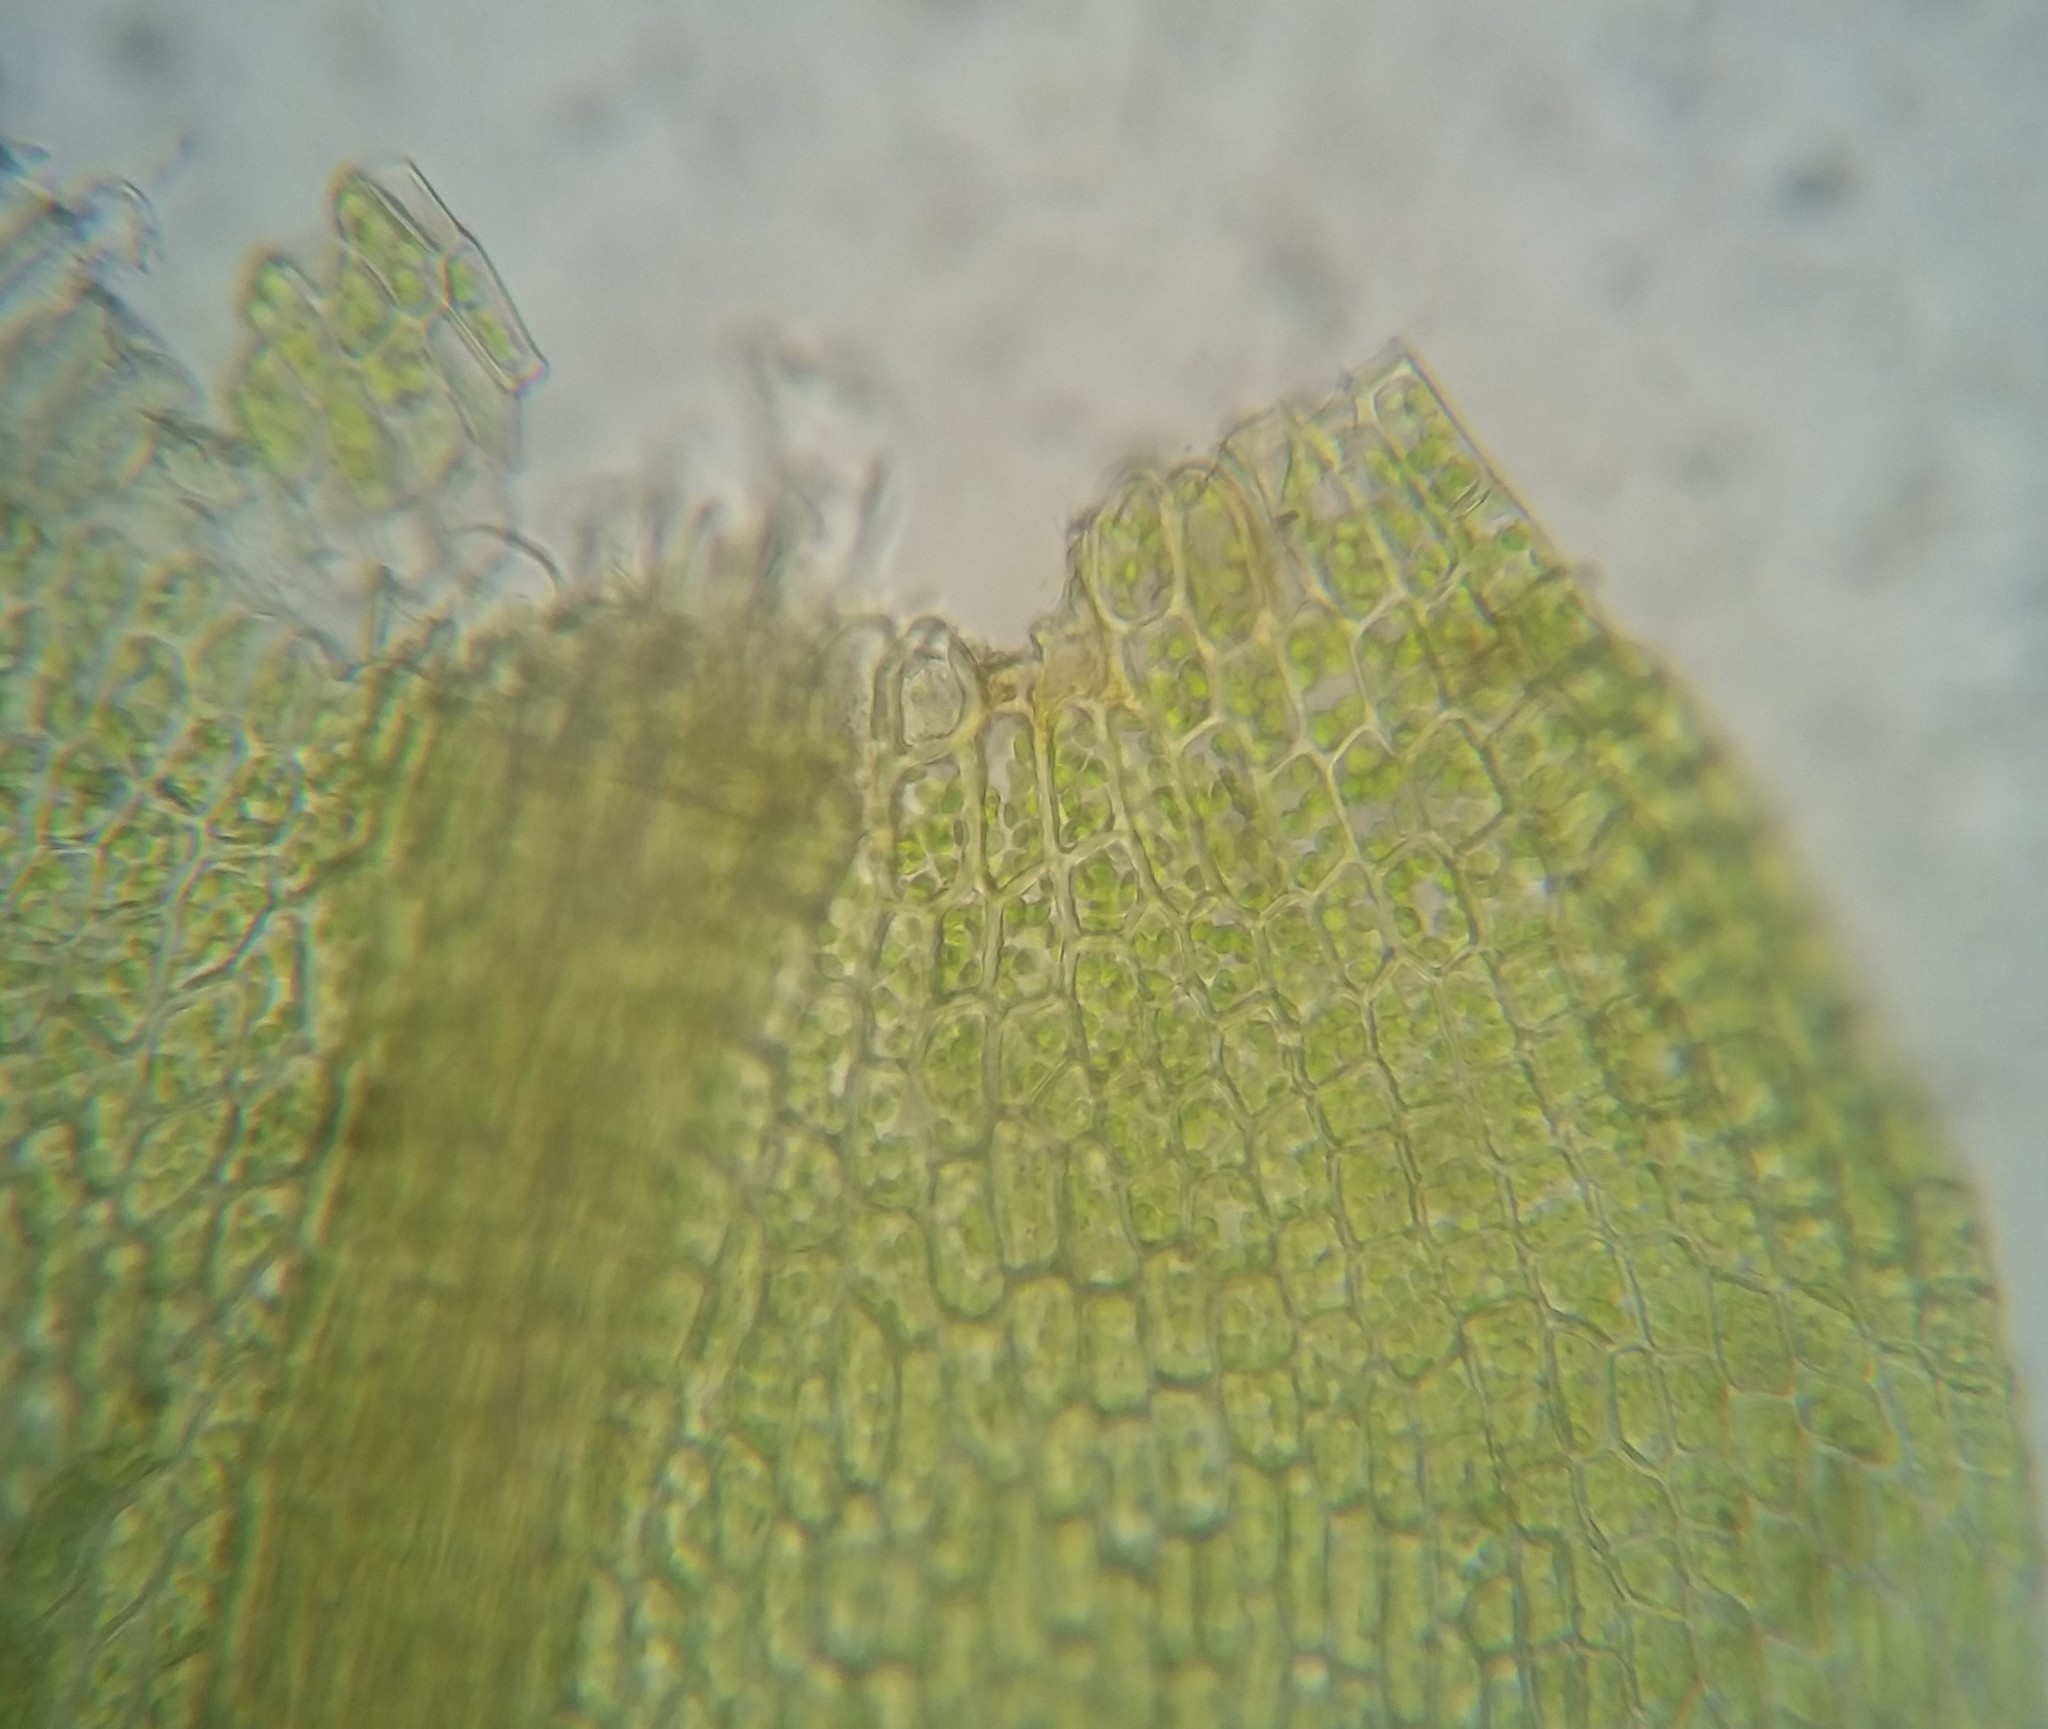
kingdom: Plantae
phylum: Bryophyta
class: Bryopsida
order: Hypnales
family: Amblystegiaceae
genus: Hygroamblystegium
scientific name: Hygroamblystegium varium
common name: Willow feather-moss
